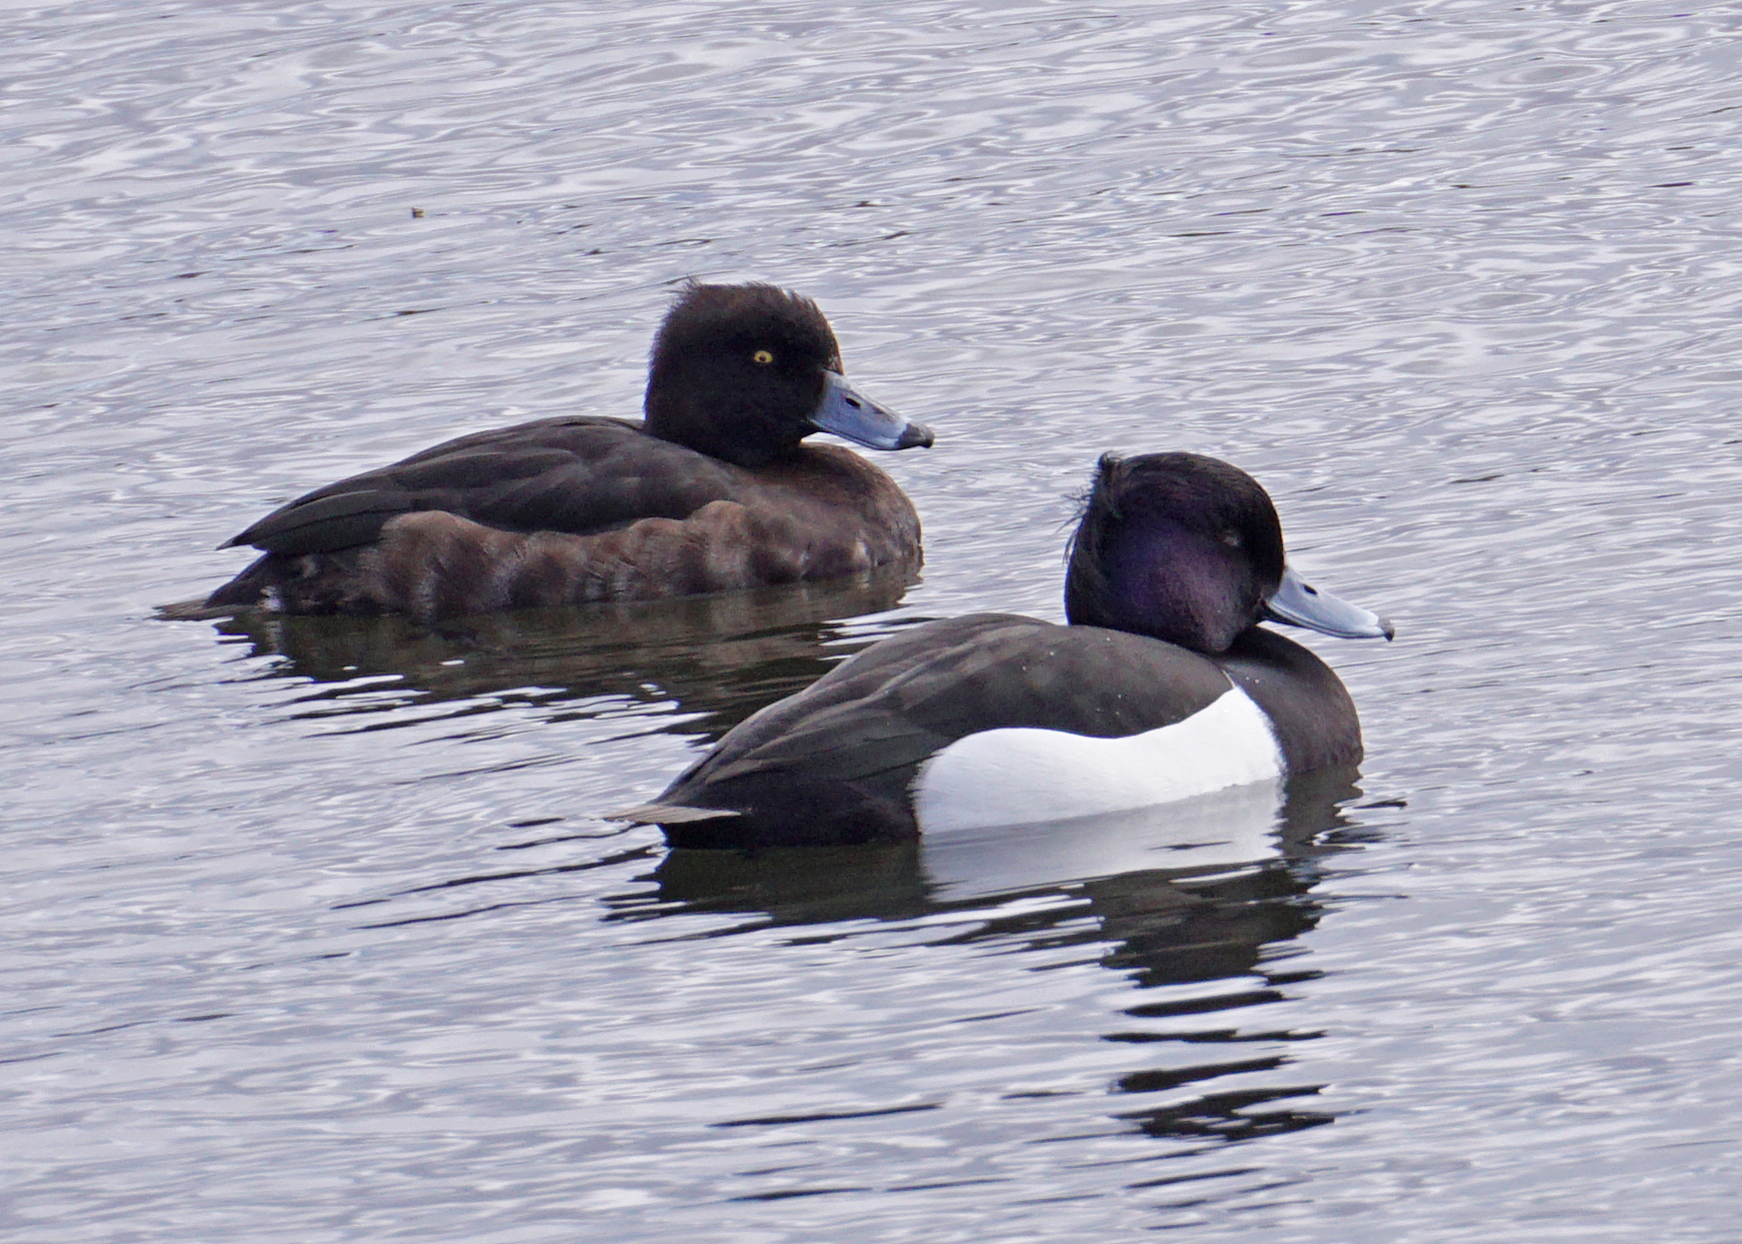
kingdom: Animalia
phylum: Chordata
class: Aves
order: Anseriformes
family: Anatidae
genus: Aythya
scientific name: Aythya fuligula
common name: Tufted duck
